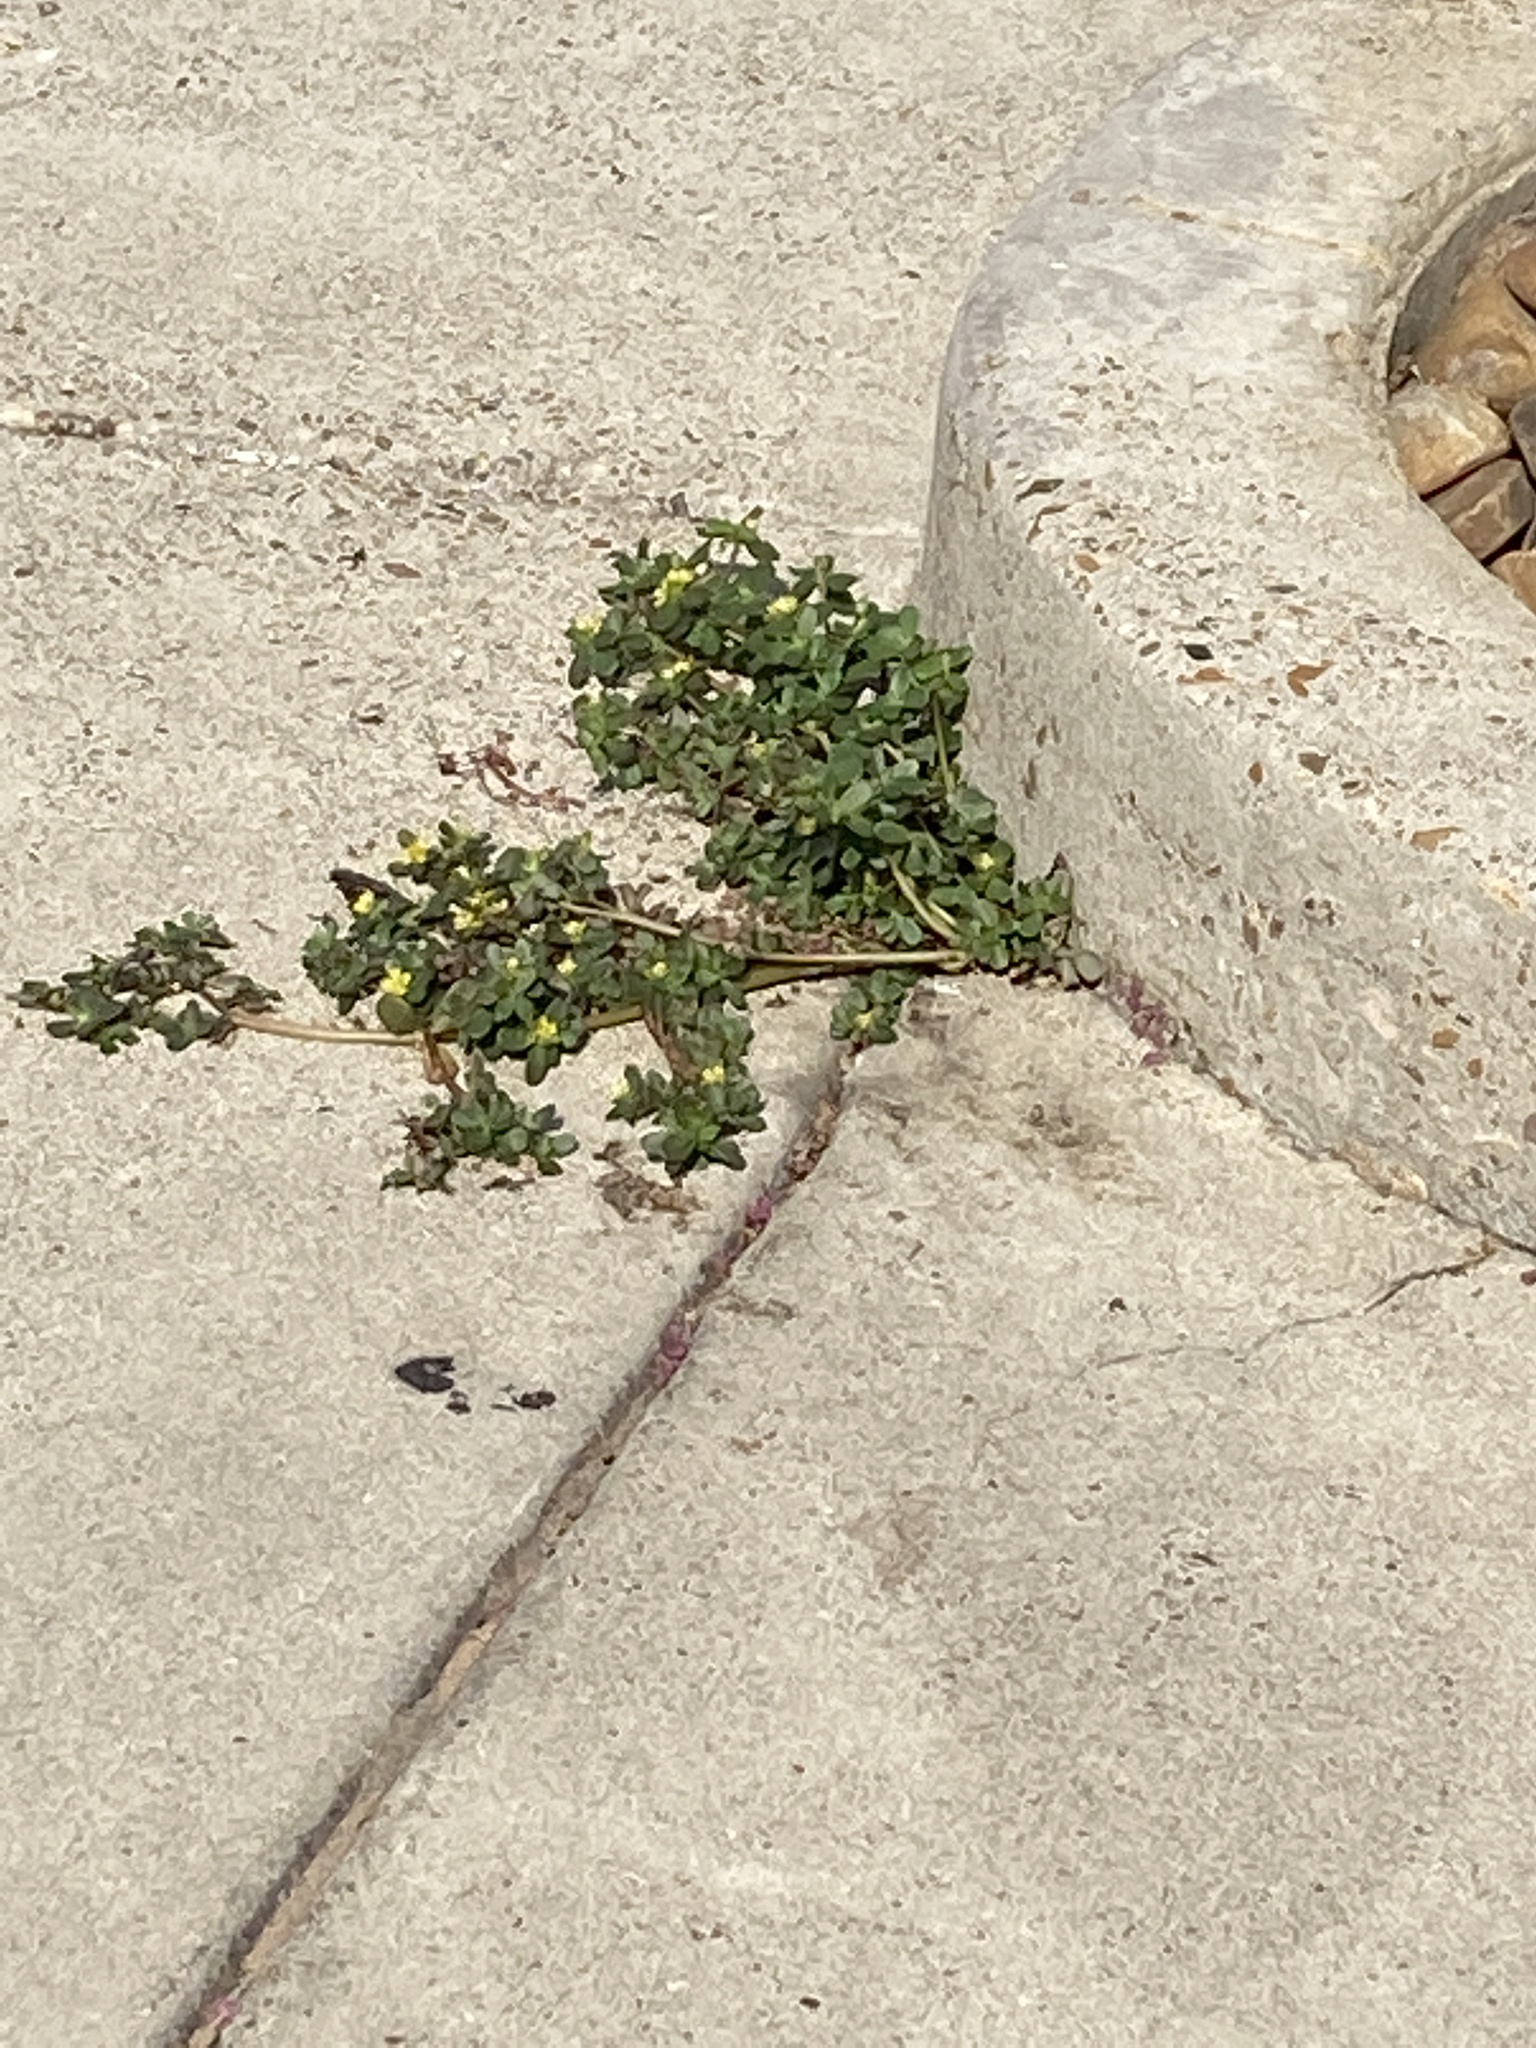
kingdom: Plantae
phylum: Tracheophyta
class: Magnoliopsida
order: Caryophyllales
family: Portulacaceae
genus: Portulaca
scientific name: Portulaca oleracea
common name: Common purslane
